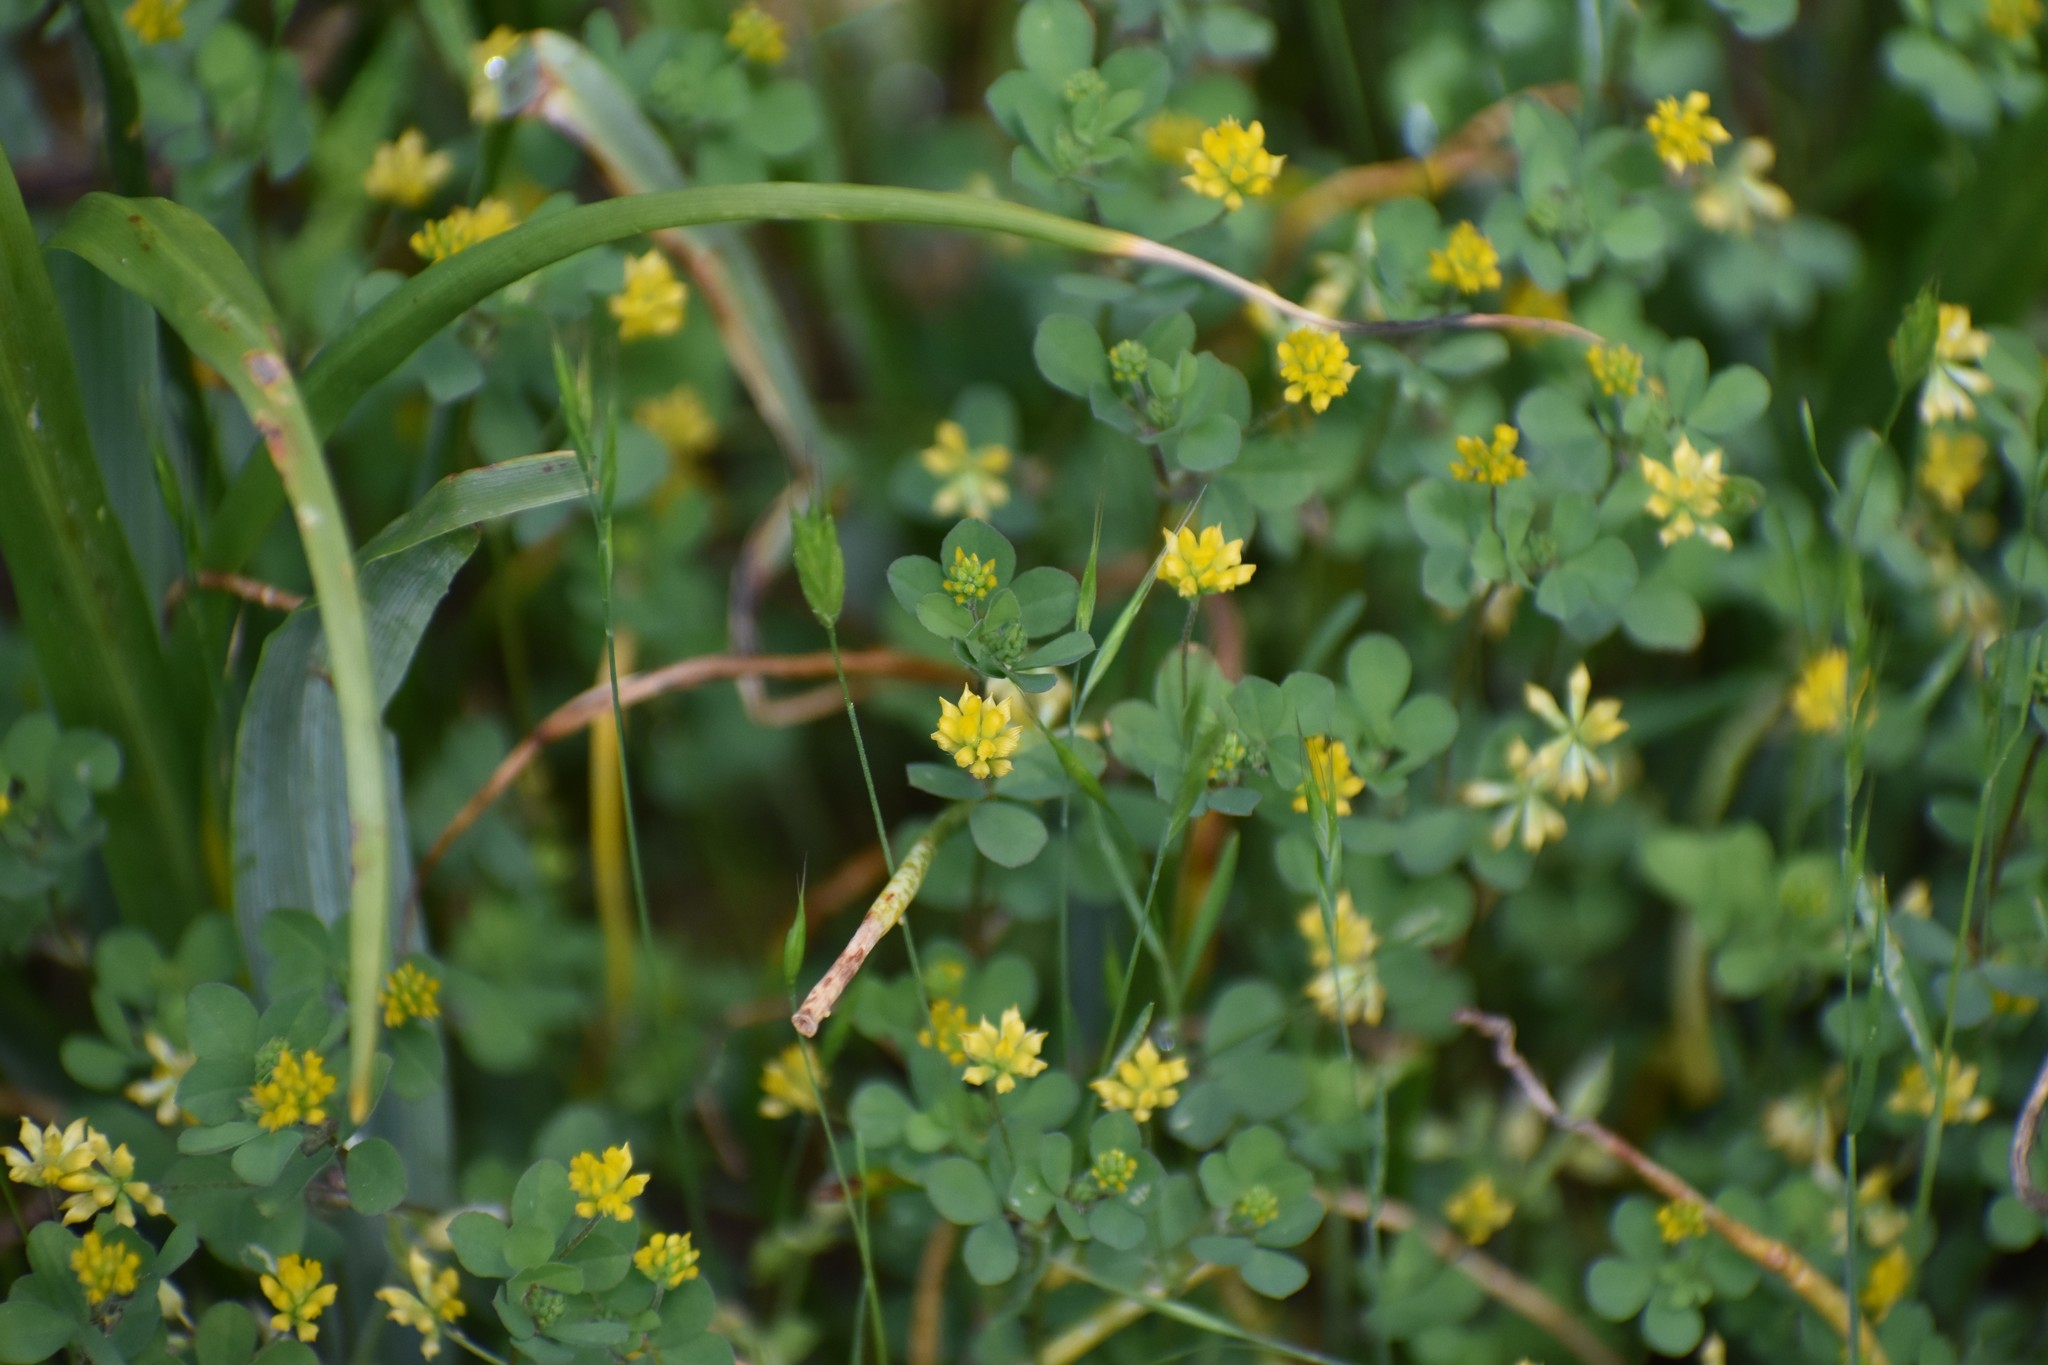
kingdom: Plantae
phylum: Tracheophyta
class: Magnoliopsida
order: Fabales
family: Fabaceae
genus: Trifolium
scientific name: Trifolium dubium
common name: Suckling clover
